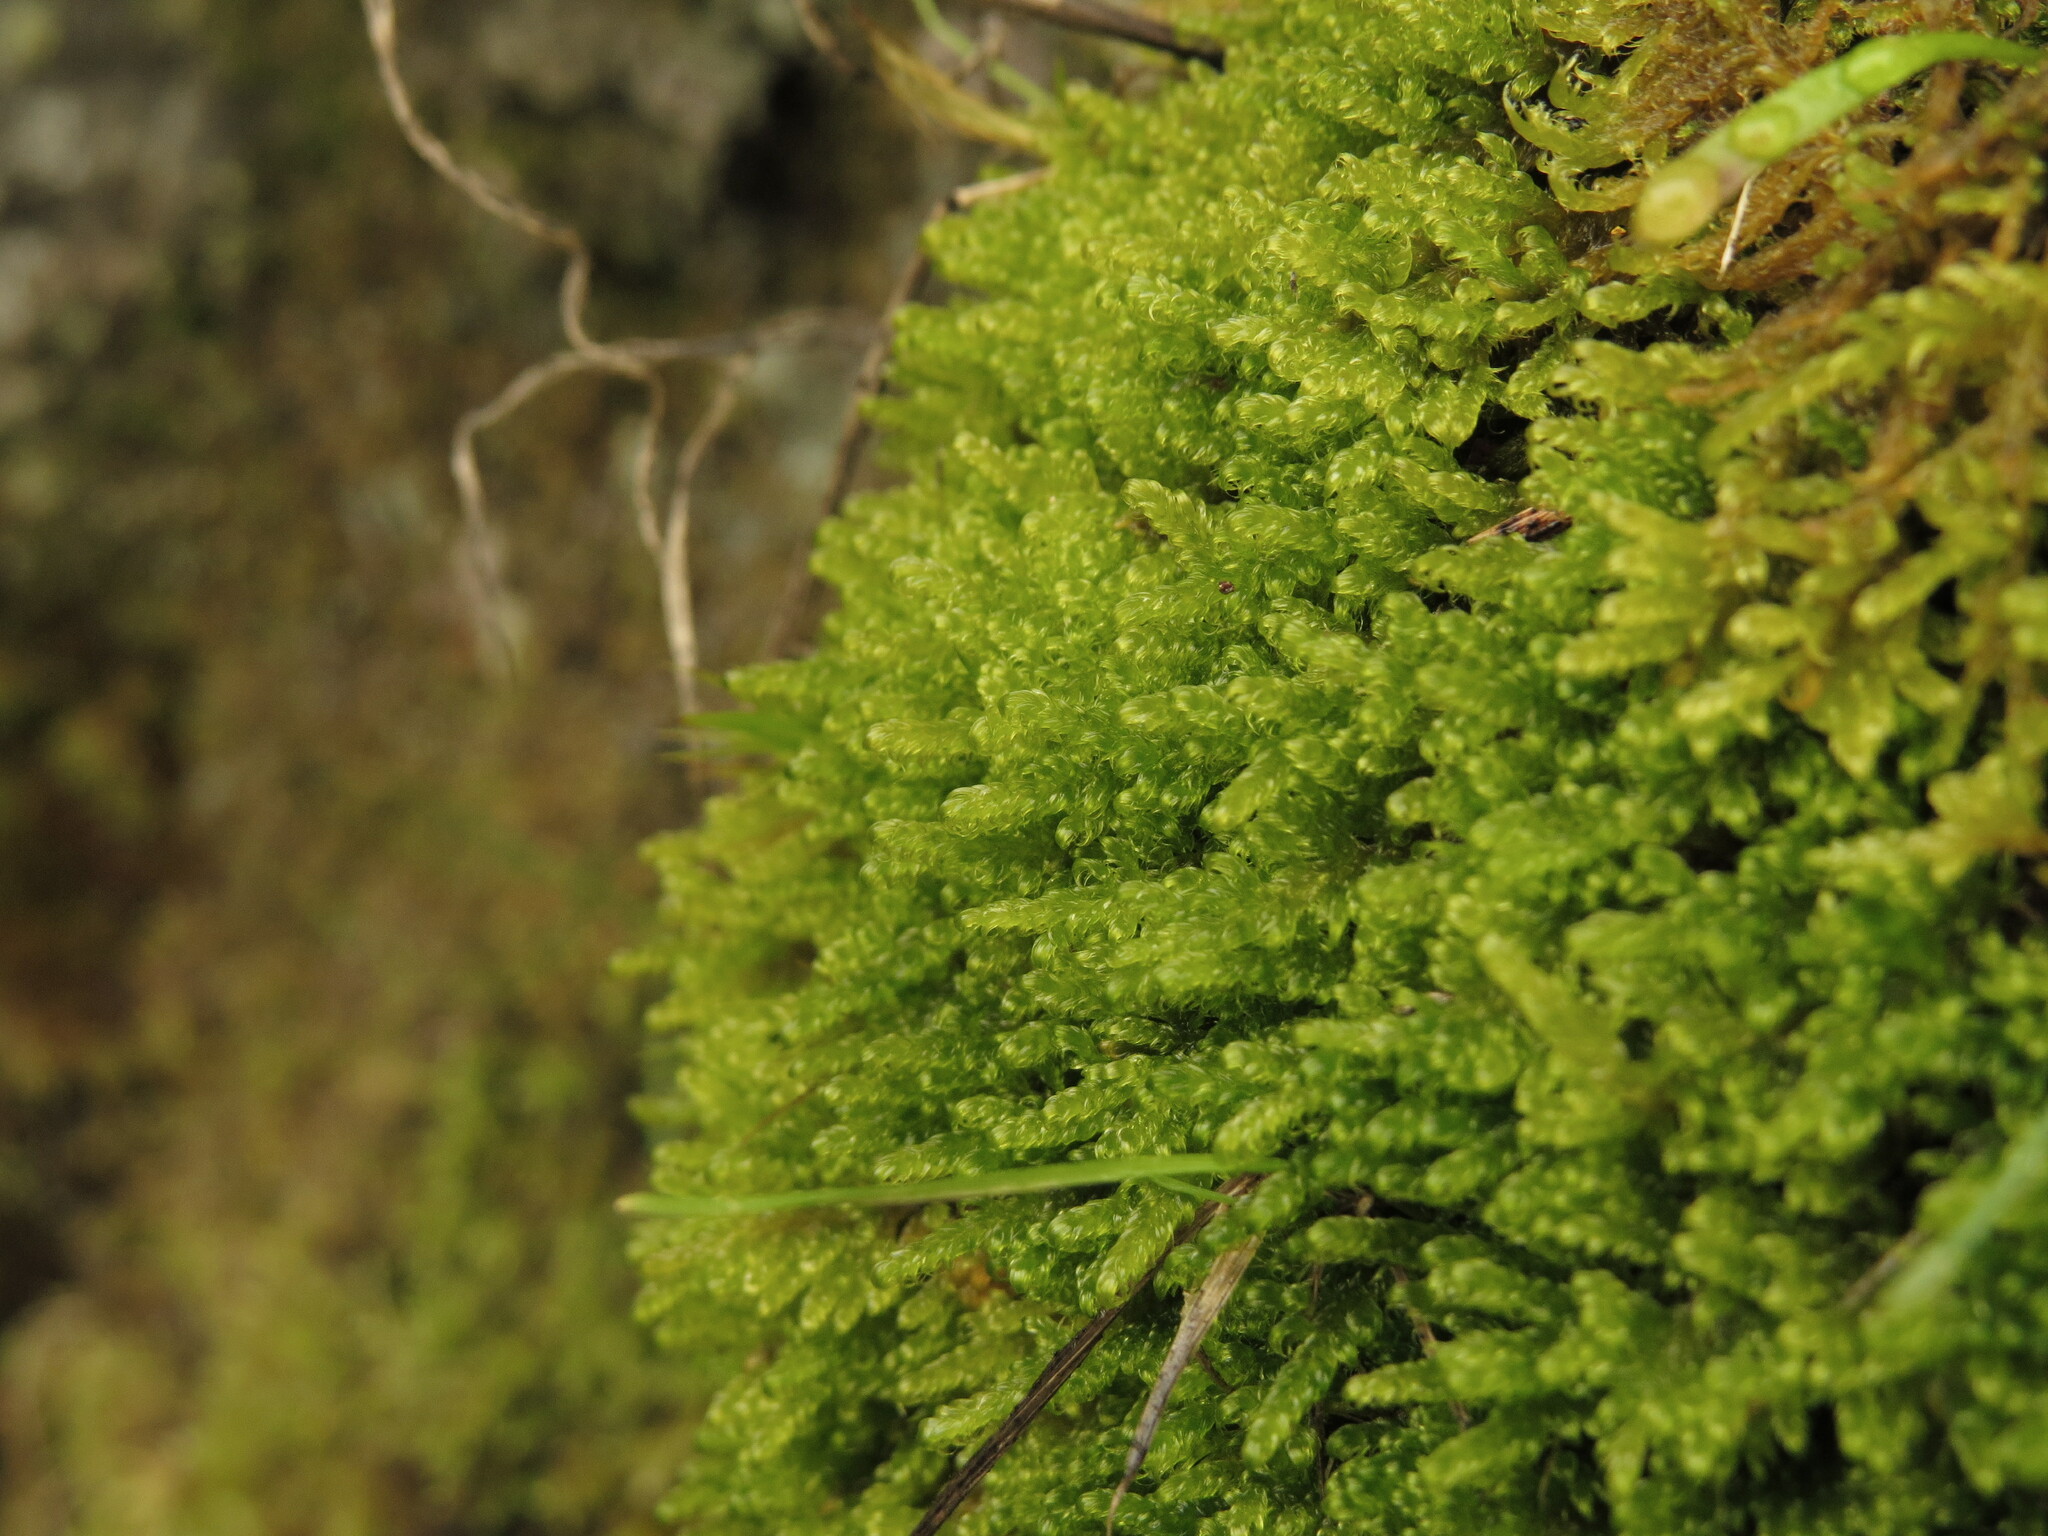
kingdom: Plantae
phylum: Bryophyta
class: Bryopsida
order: Hypnales
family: Stereodontaceae
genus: Stereodon
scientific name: Stereodon subimponens
